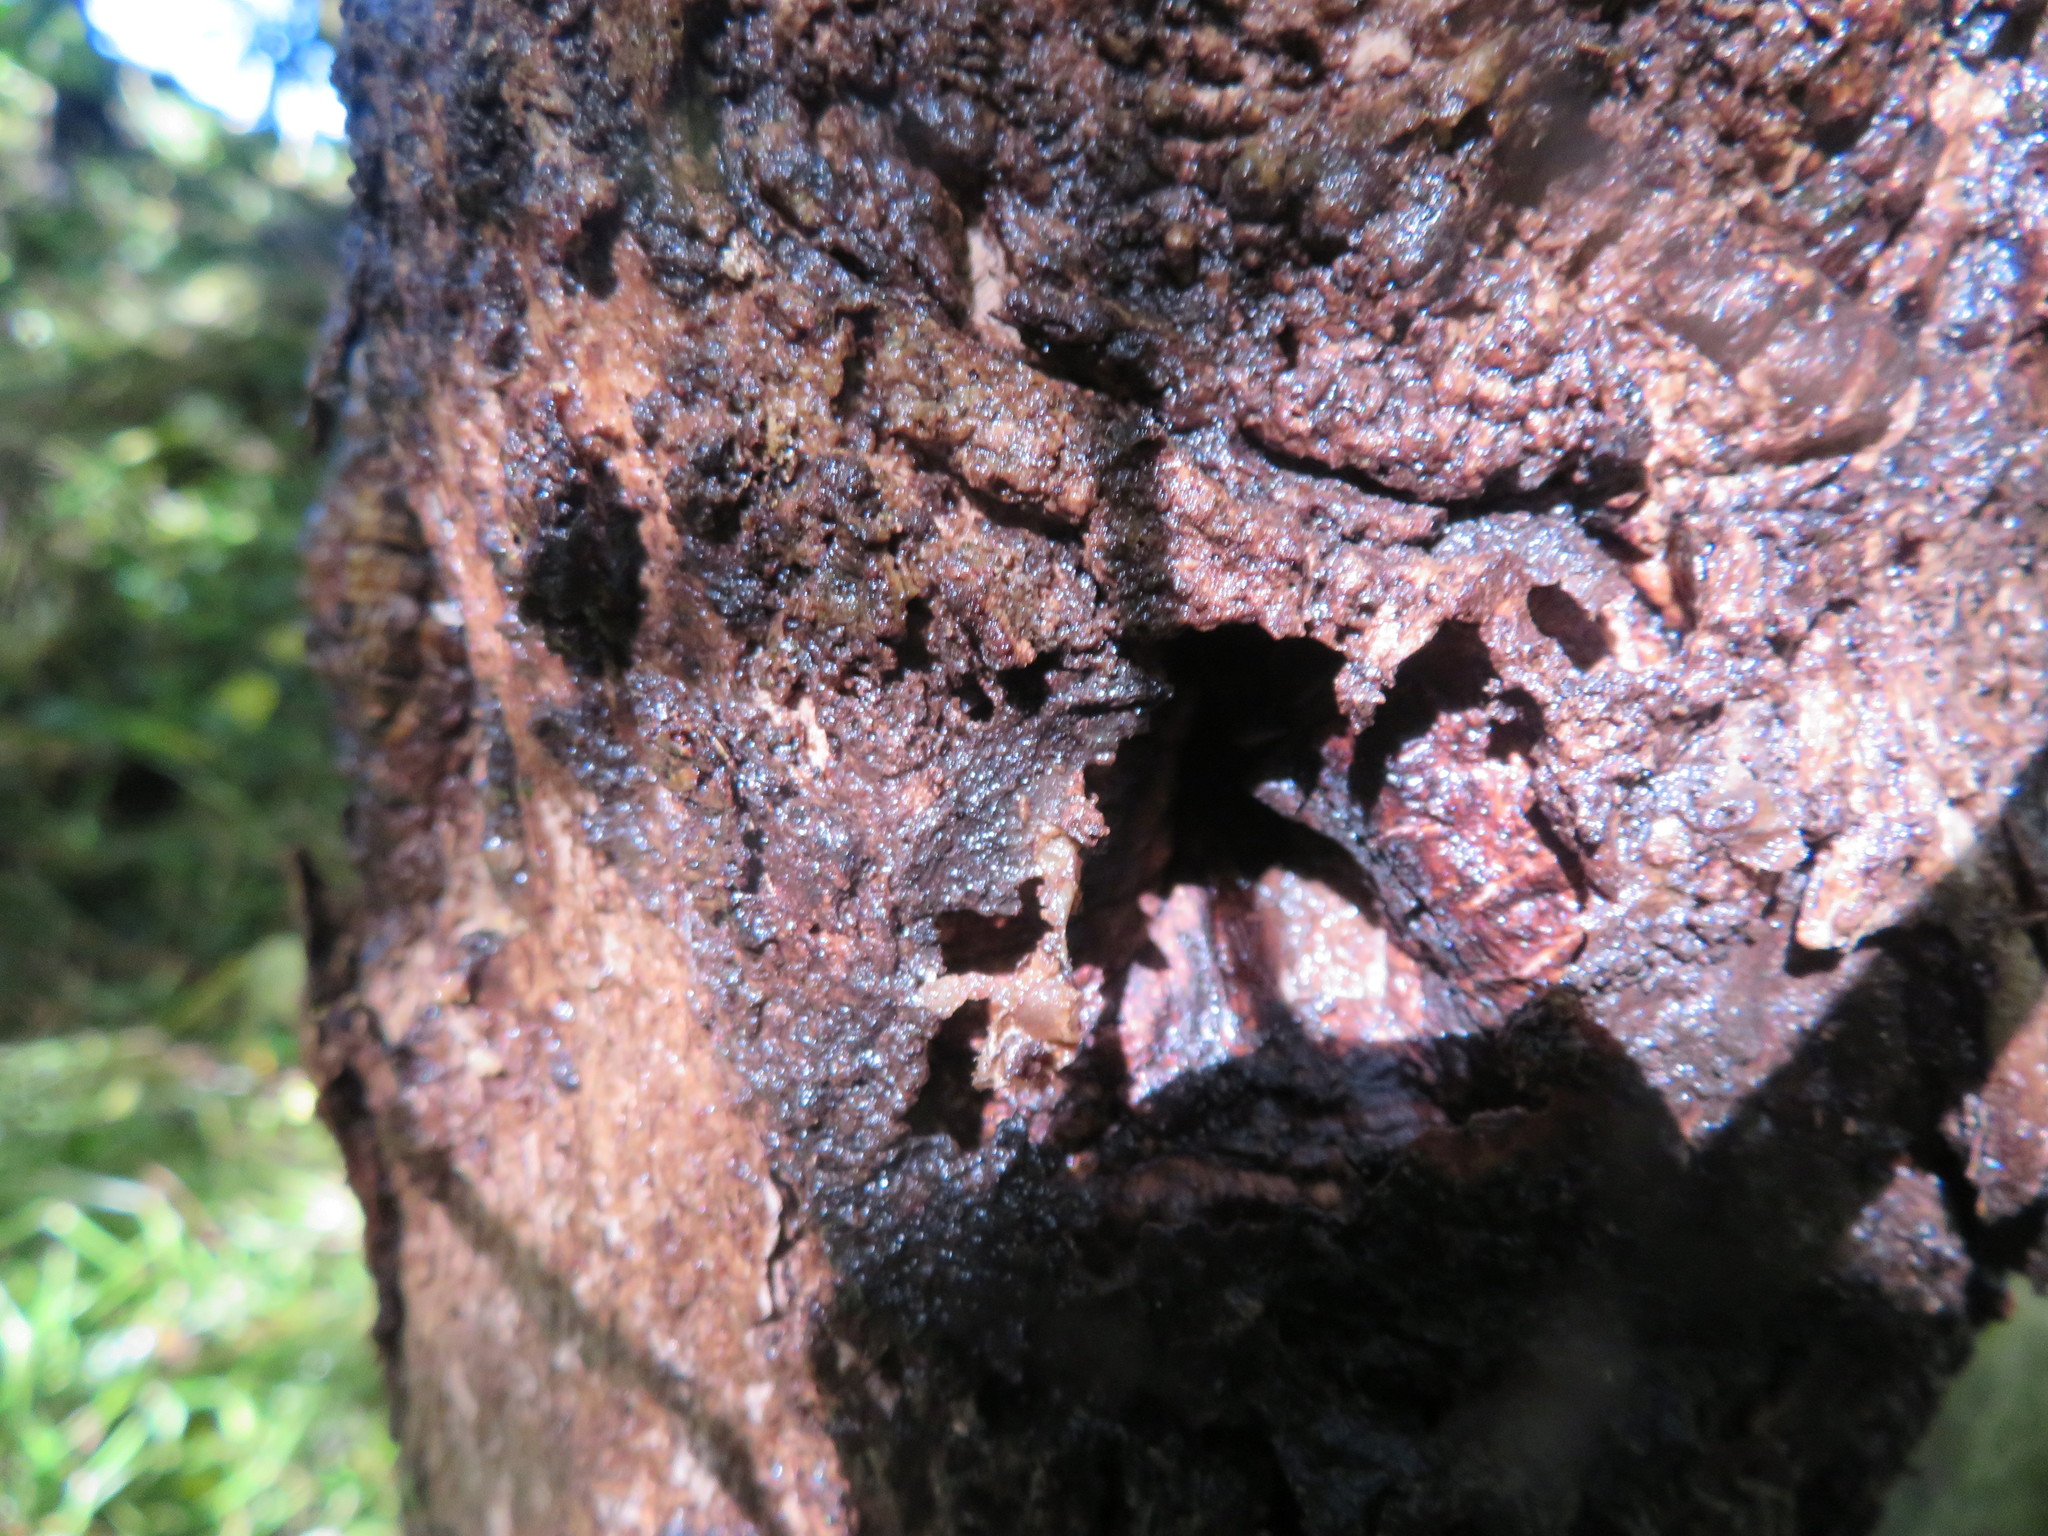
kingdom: Animalia
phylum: Arthropoda
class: Insecta
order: Lepidoptera
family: Hepialidae
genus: Aenetus
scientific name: Aenetus virescens
